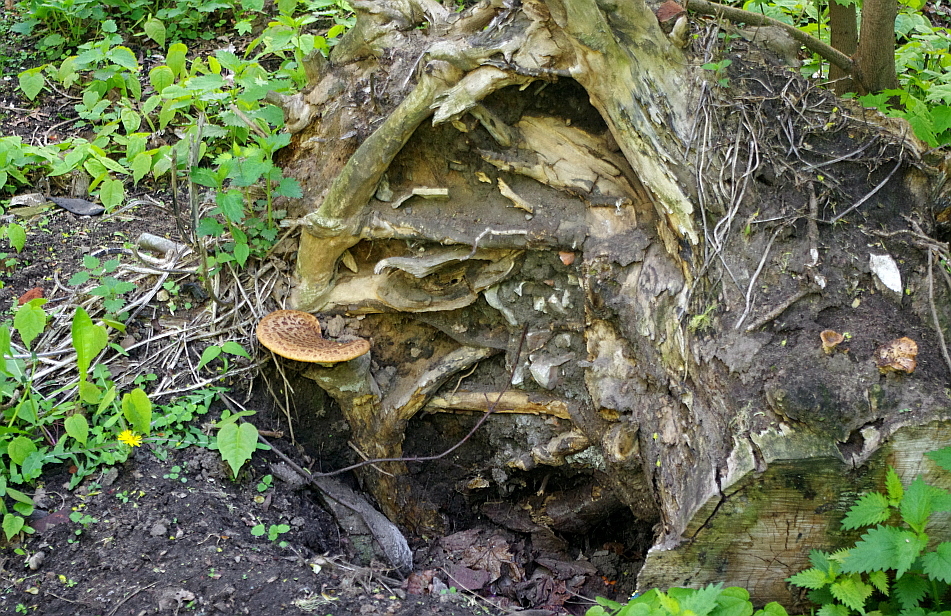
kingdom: Fungi
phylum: Basidiomycota
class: Agaricomycetes
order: Polyporales
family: Polyporaceae
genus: Cerioporus
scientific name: Cerioporus squamosus
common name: Dryad's saddle
